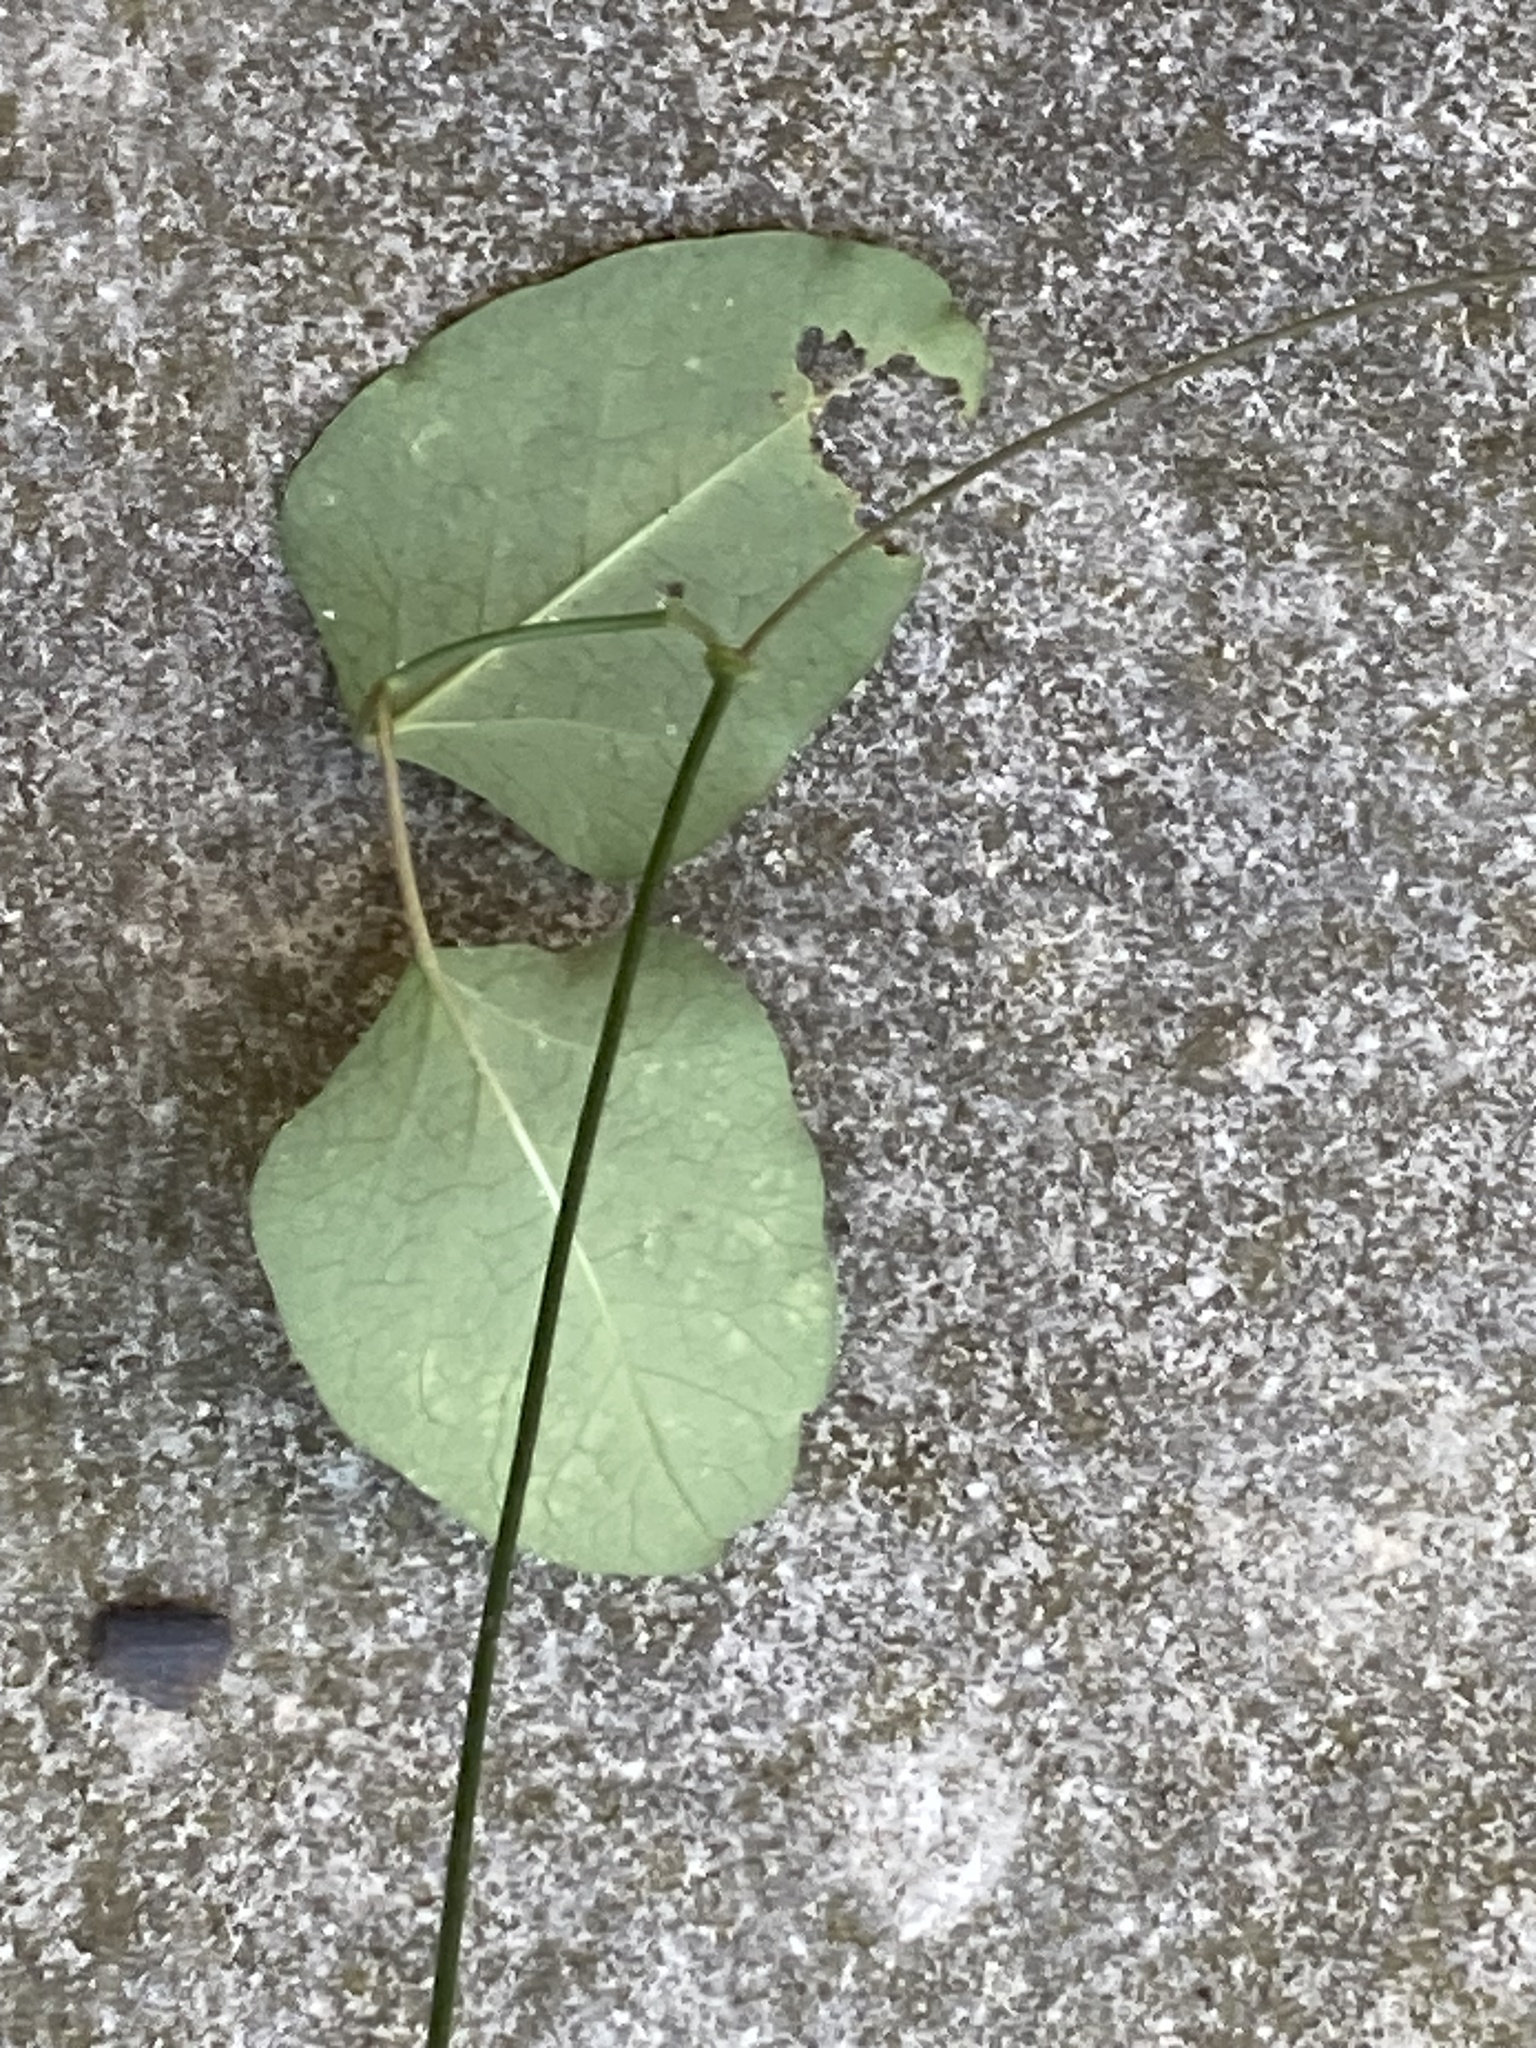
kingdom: Plantae
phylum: Tracheophyta
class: Magnoliopsida
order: Gentianales
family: Apocynaceae
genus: Araujia
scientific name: Araujia sericifera
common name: White bladderflower
